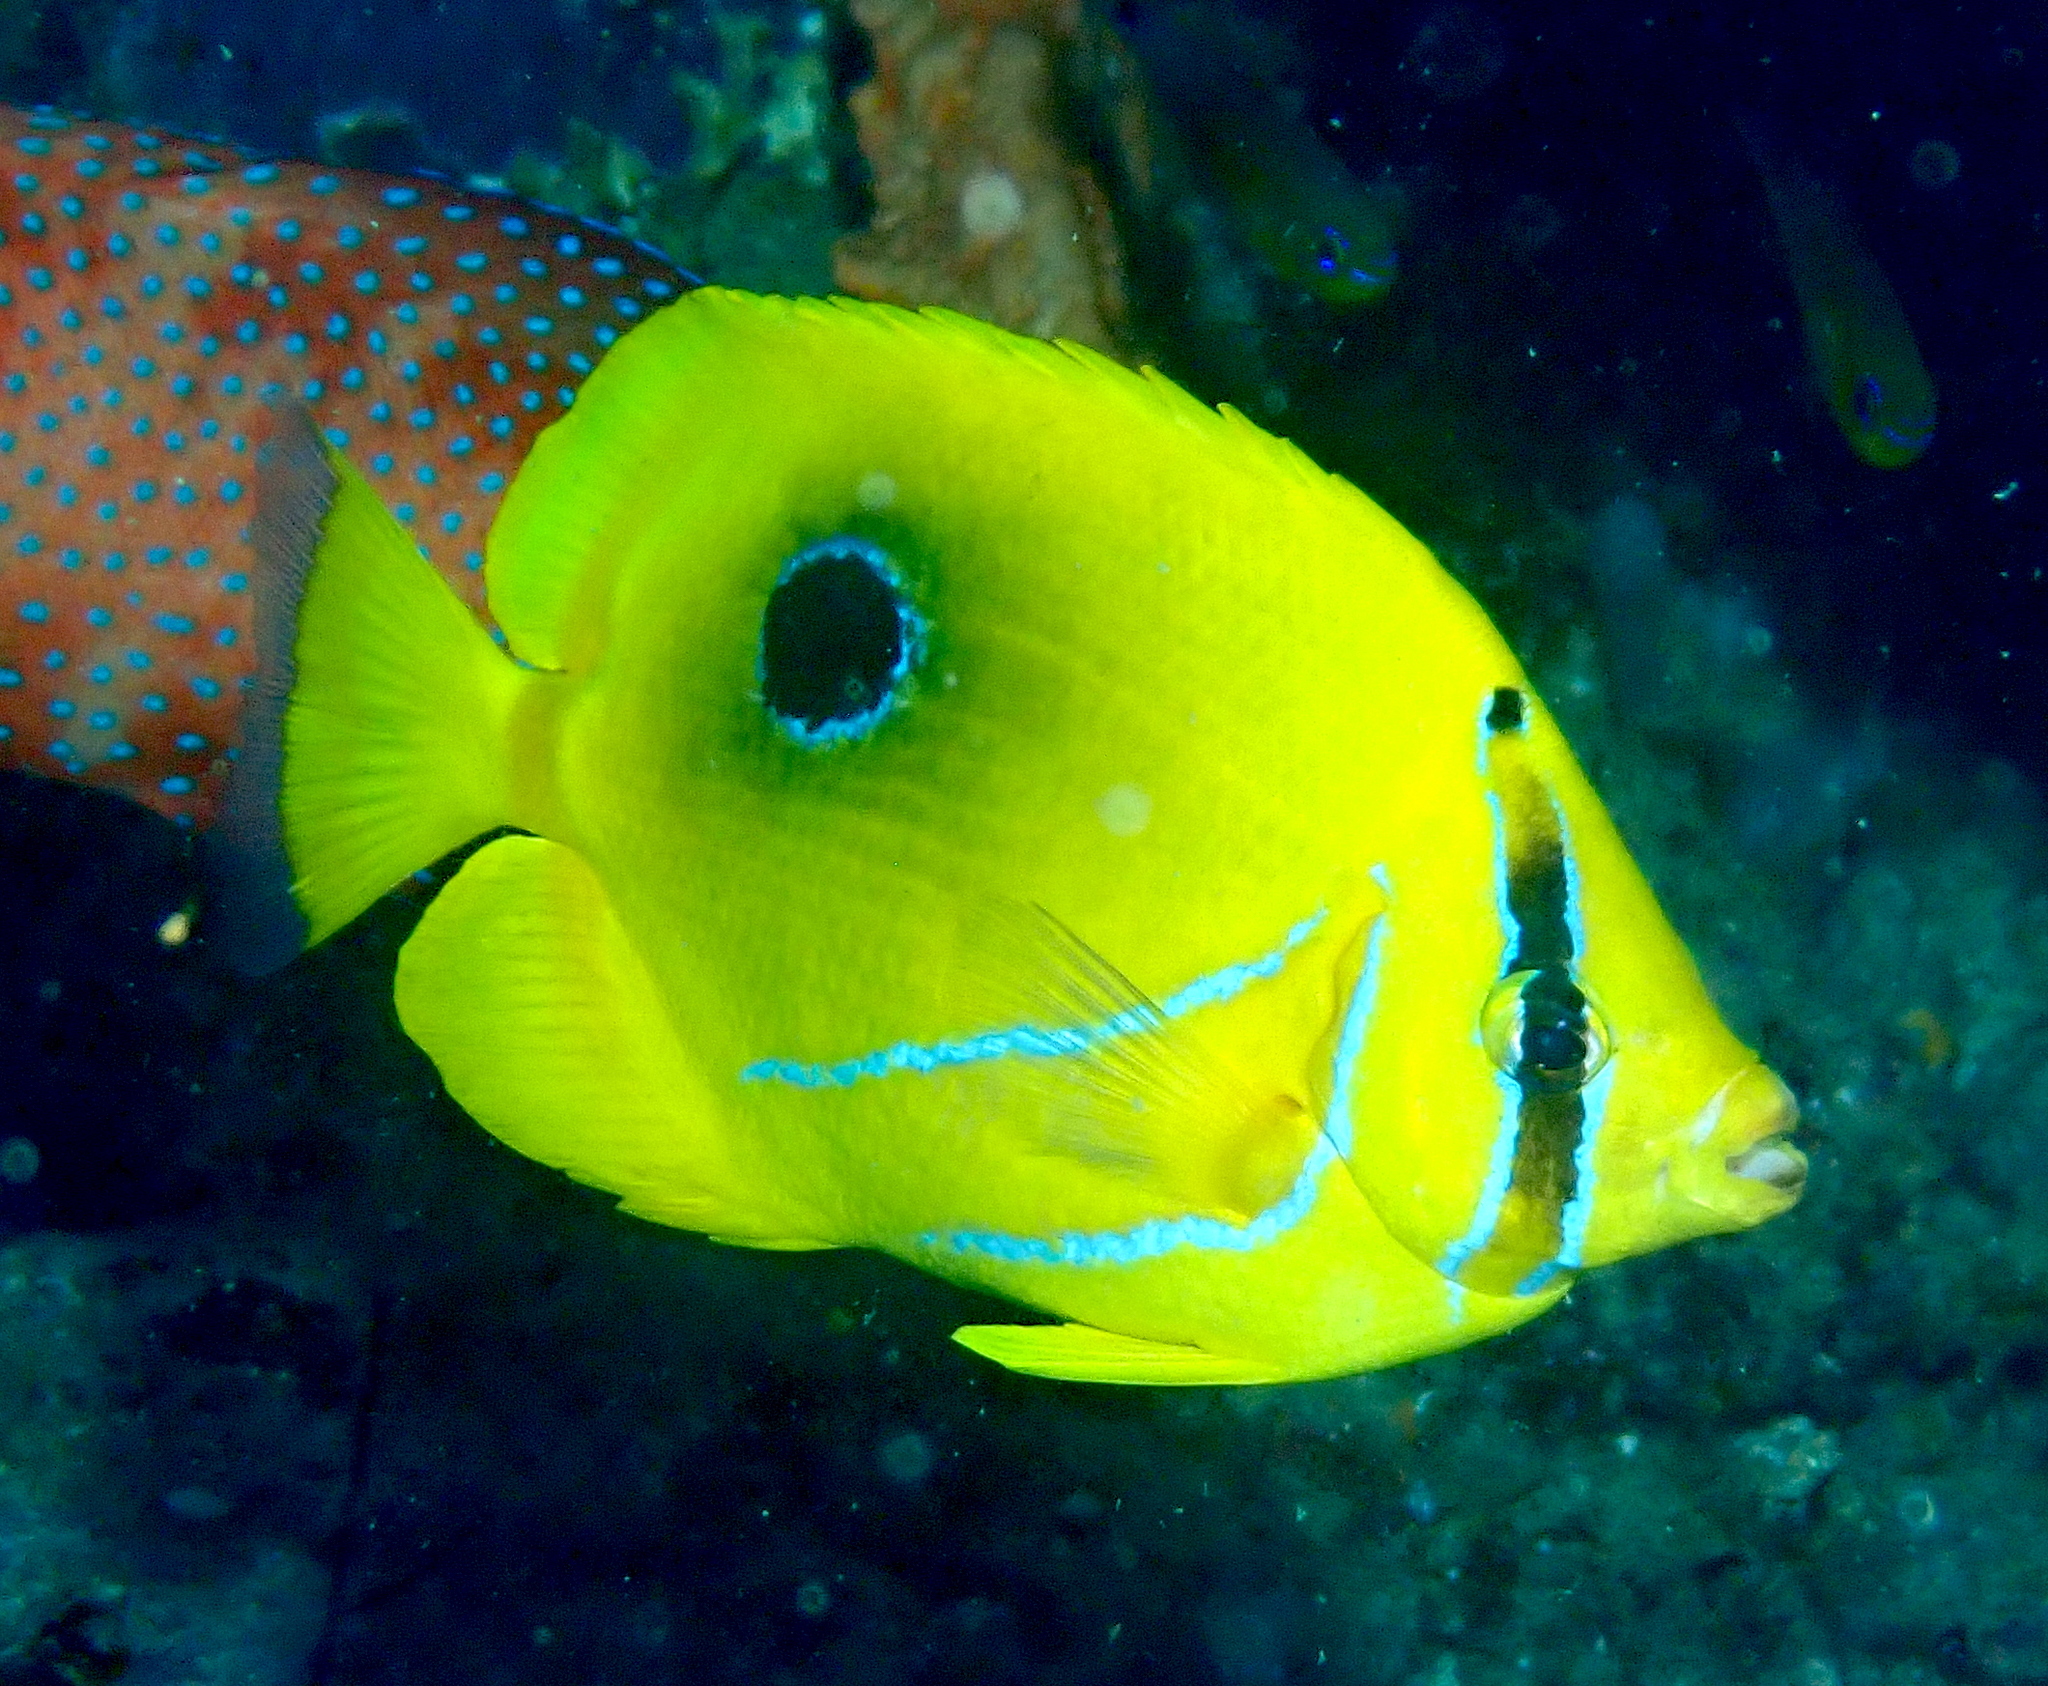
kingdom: Animalia
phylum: Chordata
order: Perciformes
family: Chaetodontidae
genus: Chaetodon
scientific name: Chaetodon bennetti
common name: Bennett's butterflyfish
